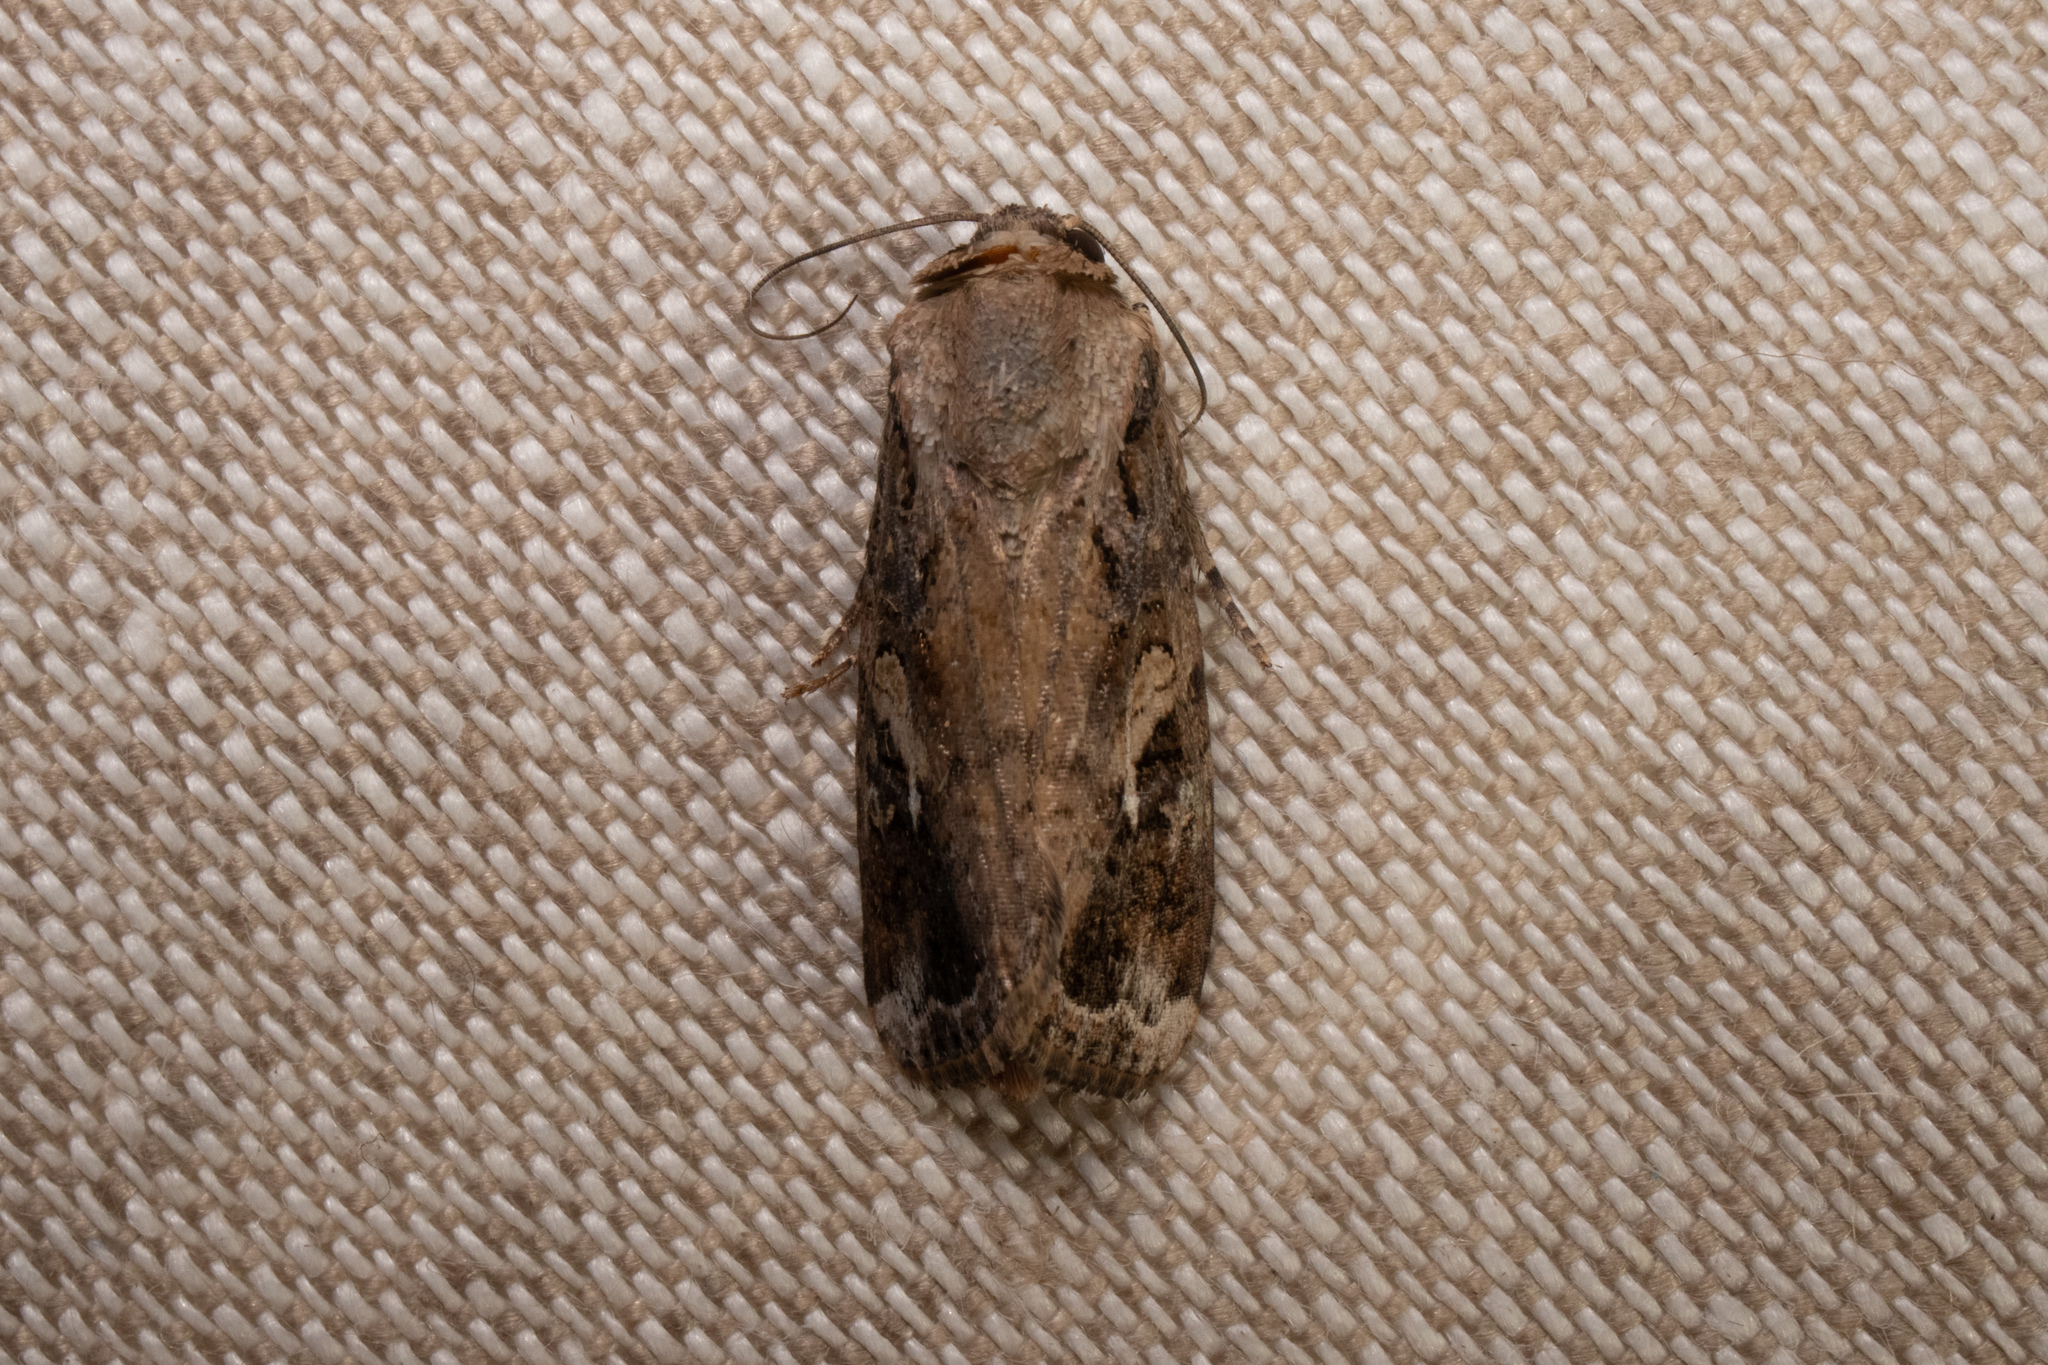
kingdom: Animalia
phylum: Arthropoda
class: Insecta
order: Lepidoptera
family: Noctuidae
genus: Spodoptera
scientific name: Spodoptera frugiperda
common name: Fall armyworm
